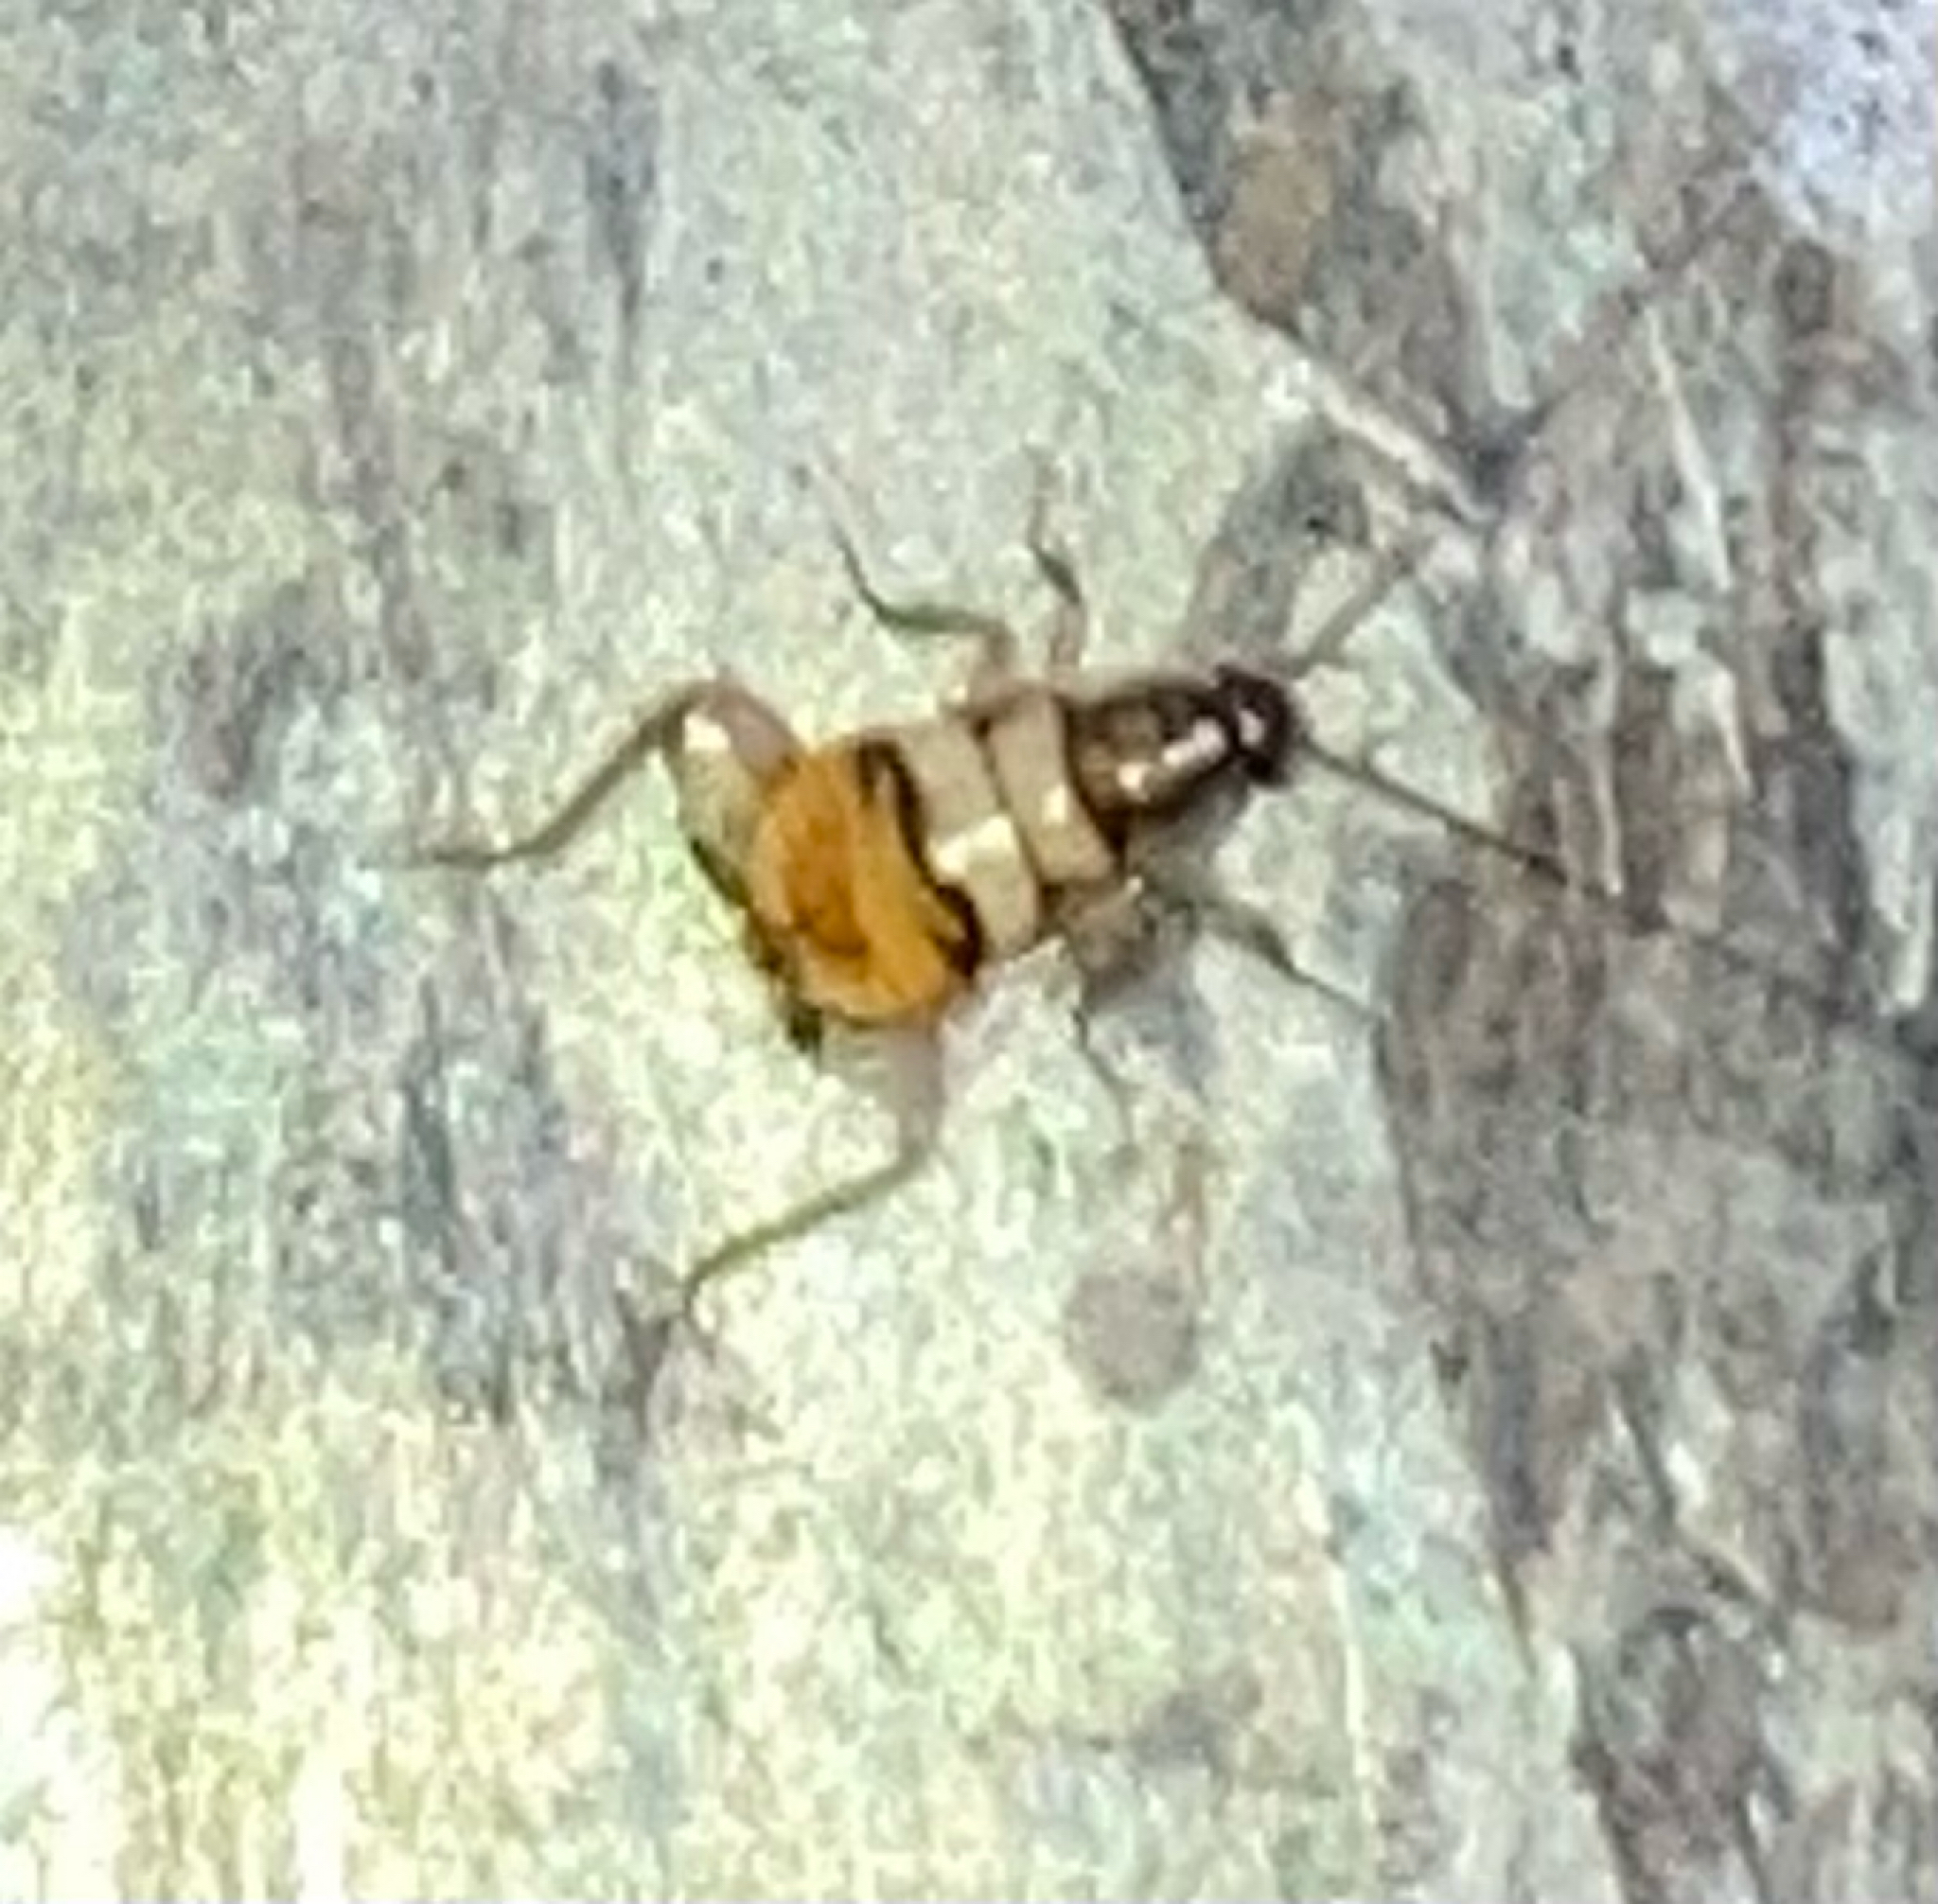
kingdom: Animalia
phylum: Arthropoda
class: Insecta
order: Blattodea
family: Ectobiidae
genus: Supella
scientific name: Supella longipalpa
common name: Brown-banded cockroach
